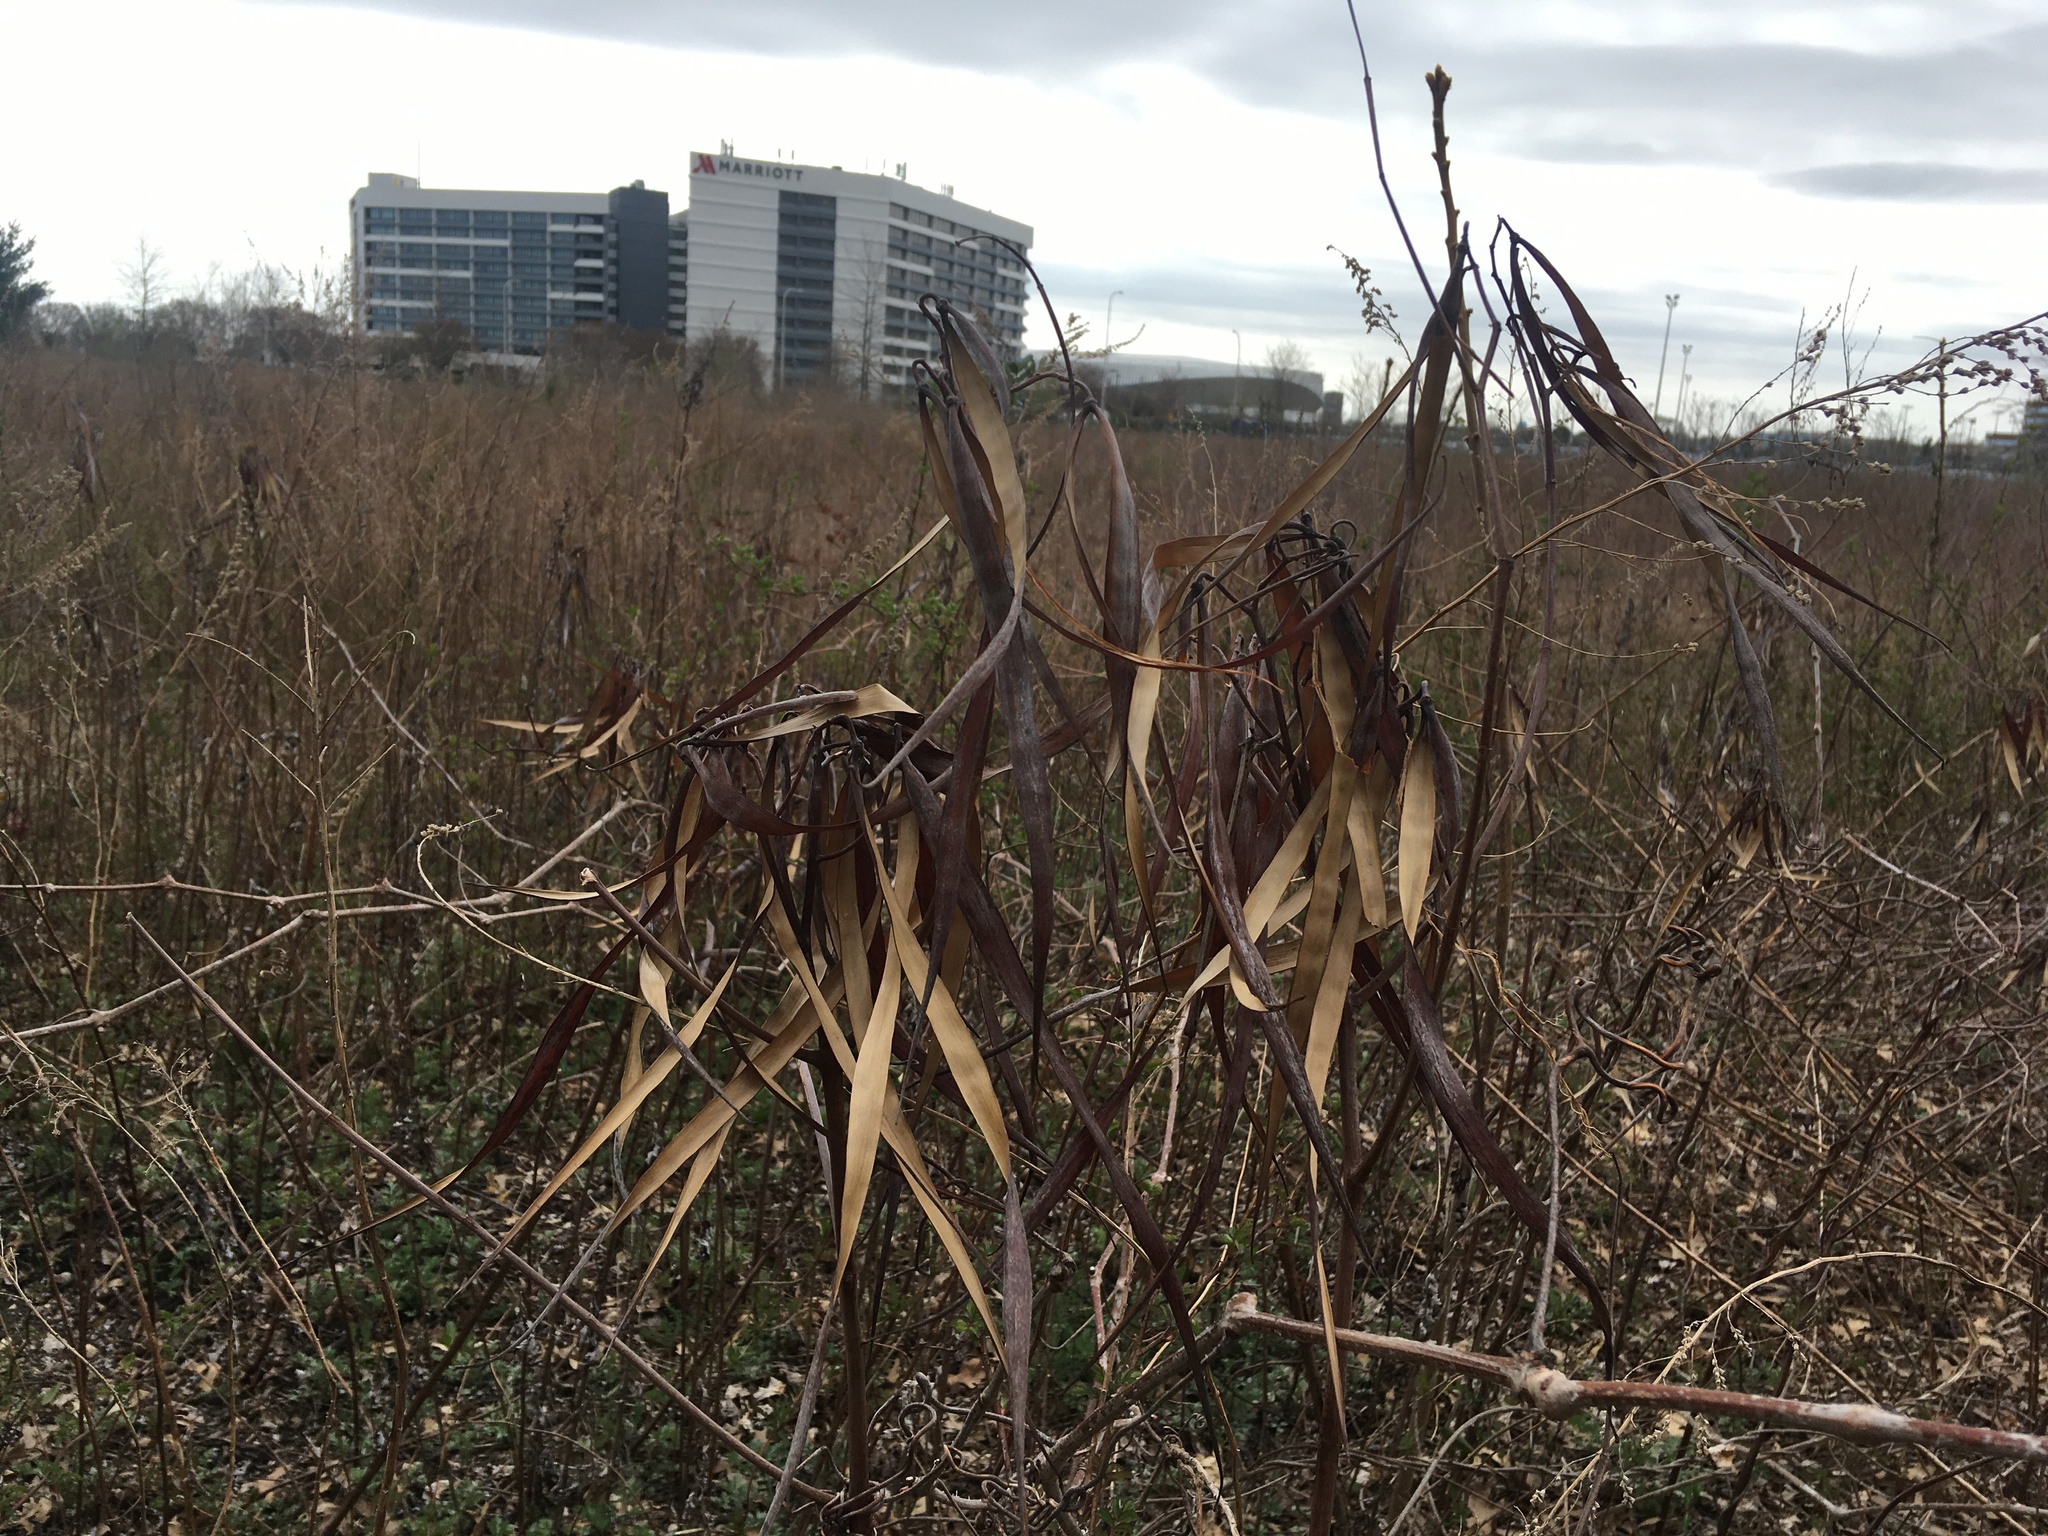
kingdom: Plantae
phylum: Tracheophyta
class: Magnoliopsida
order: Gentianales
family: Apocynaceae
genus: Apocynum
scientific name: Apocynum cannabinum
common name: Hemp dogbane
